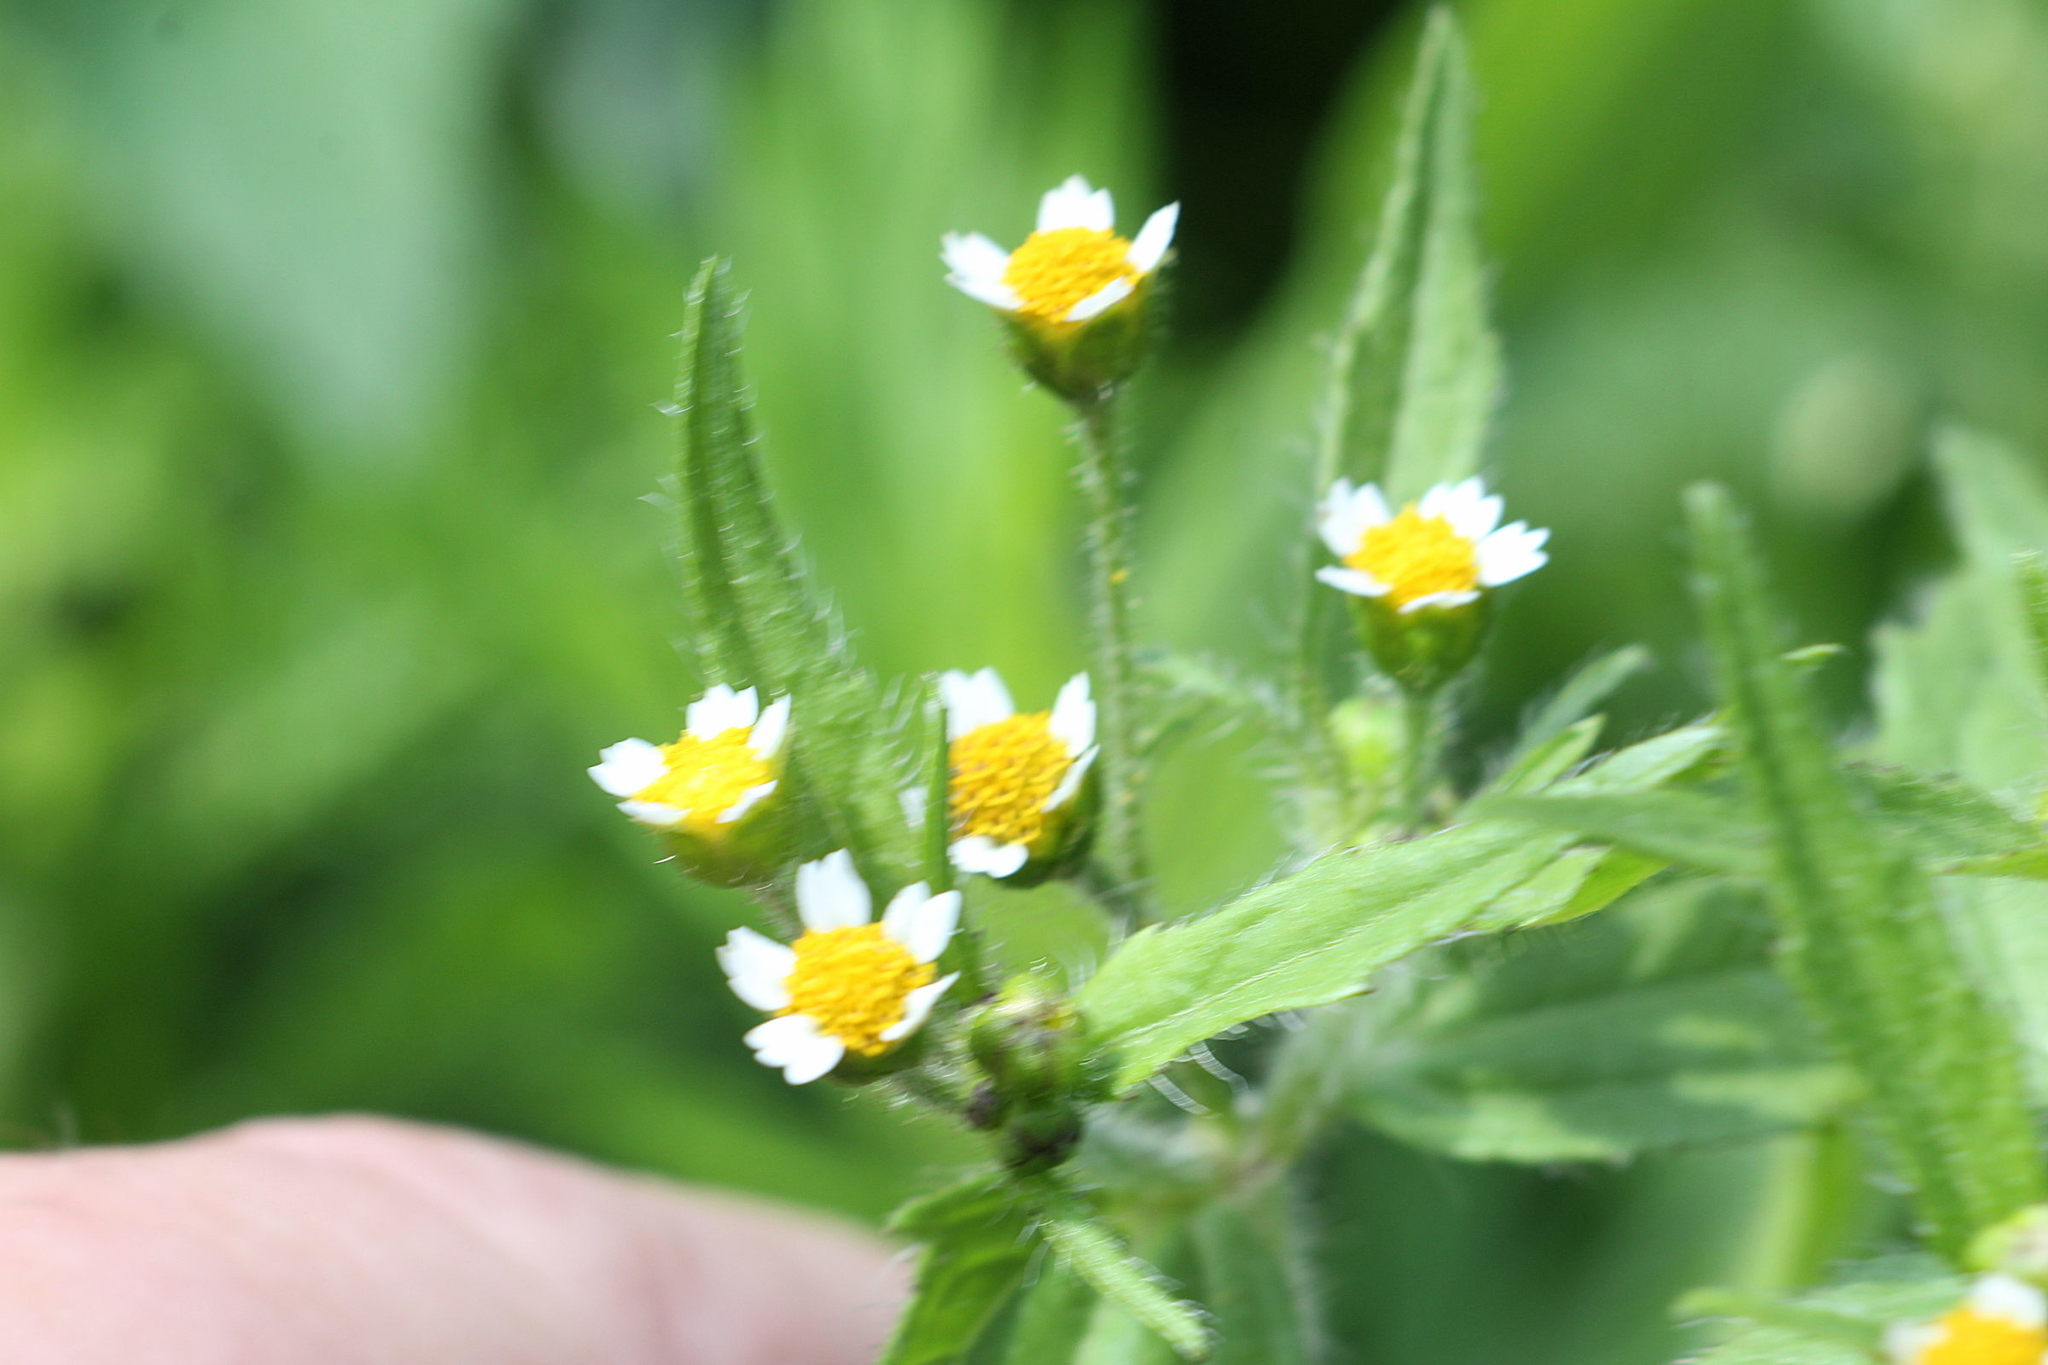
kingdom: Plantae
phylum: Tracheophyta
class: Magnoliopsida
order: Asterales
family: Asteraceae
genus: Galinsoga
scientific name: Galinsoga quadriradiata
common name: Shaggy soldier
